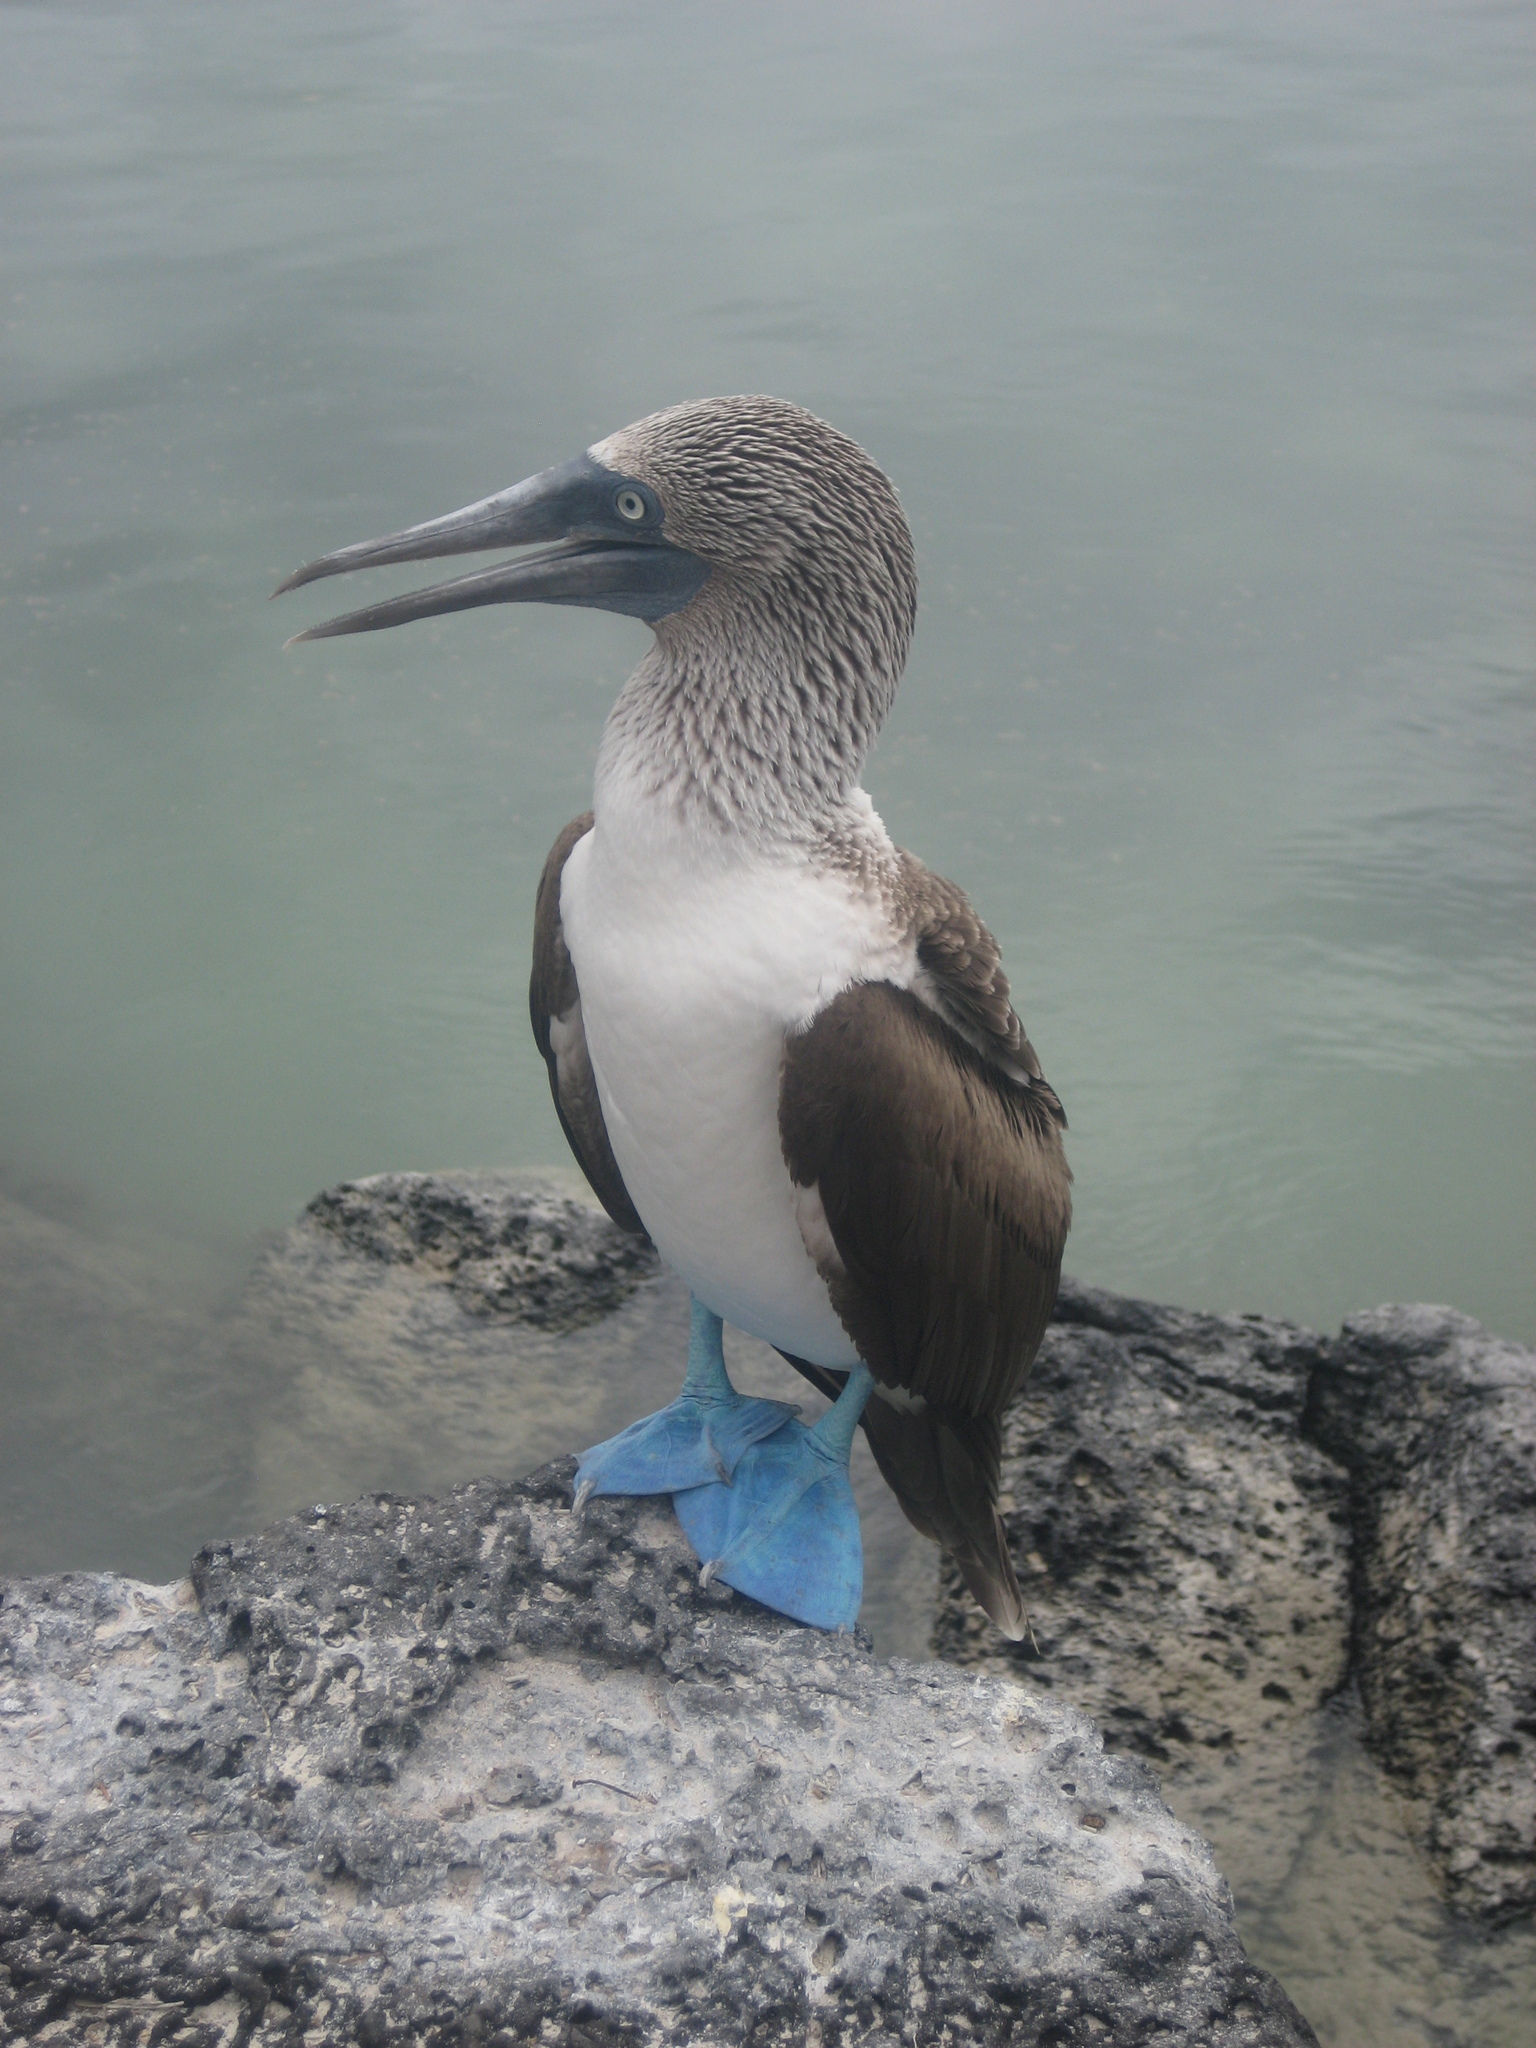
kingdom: Animalia
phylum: Chordata
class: Aves
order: Suliformes
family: Sulidae
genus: Sula
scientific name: Sula nebouxii
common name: Blue-footed booby
